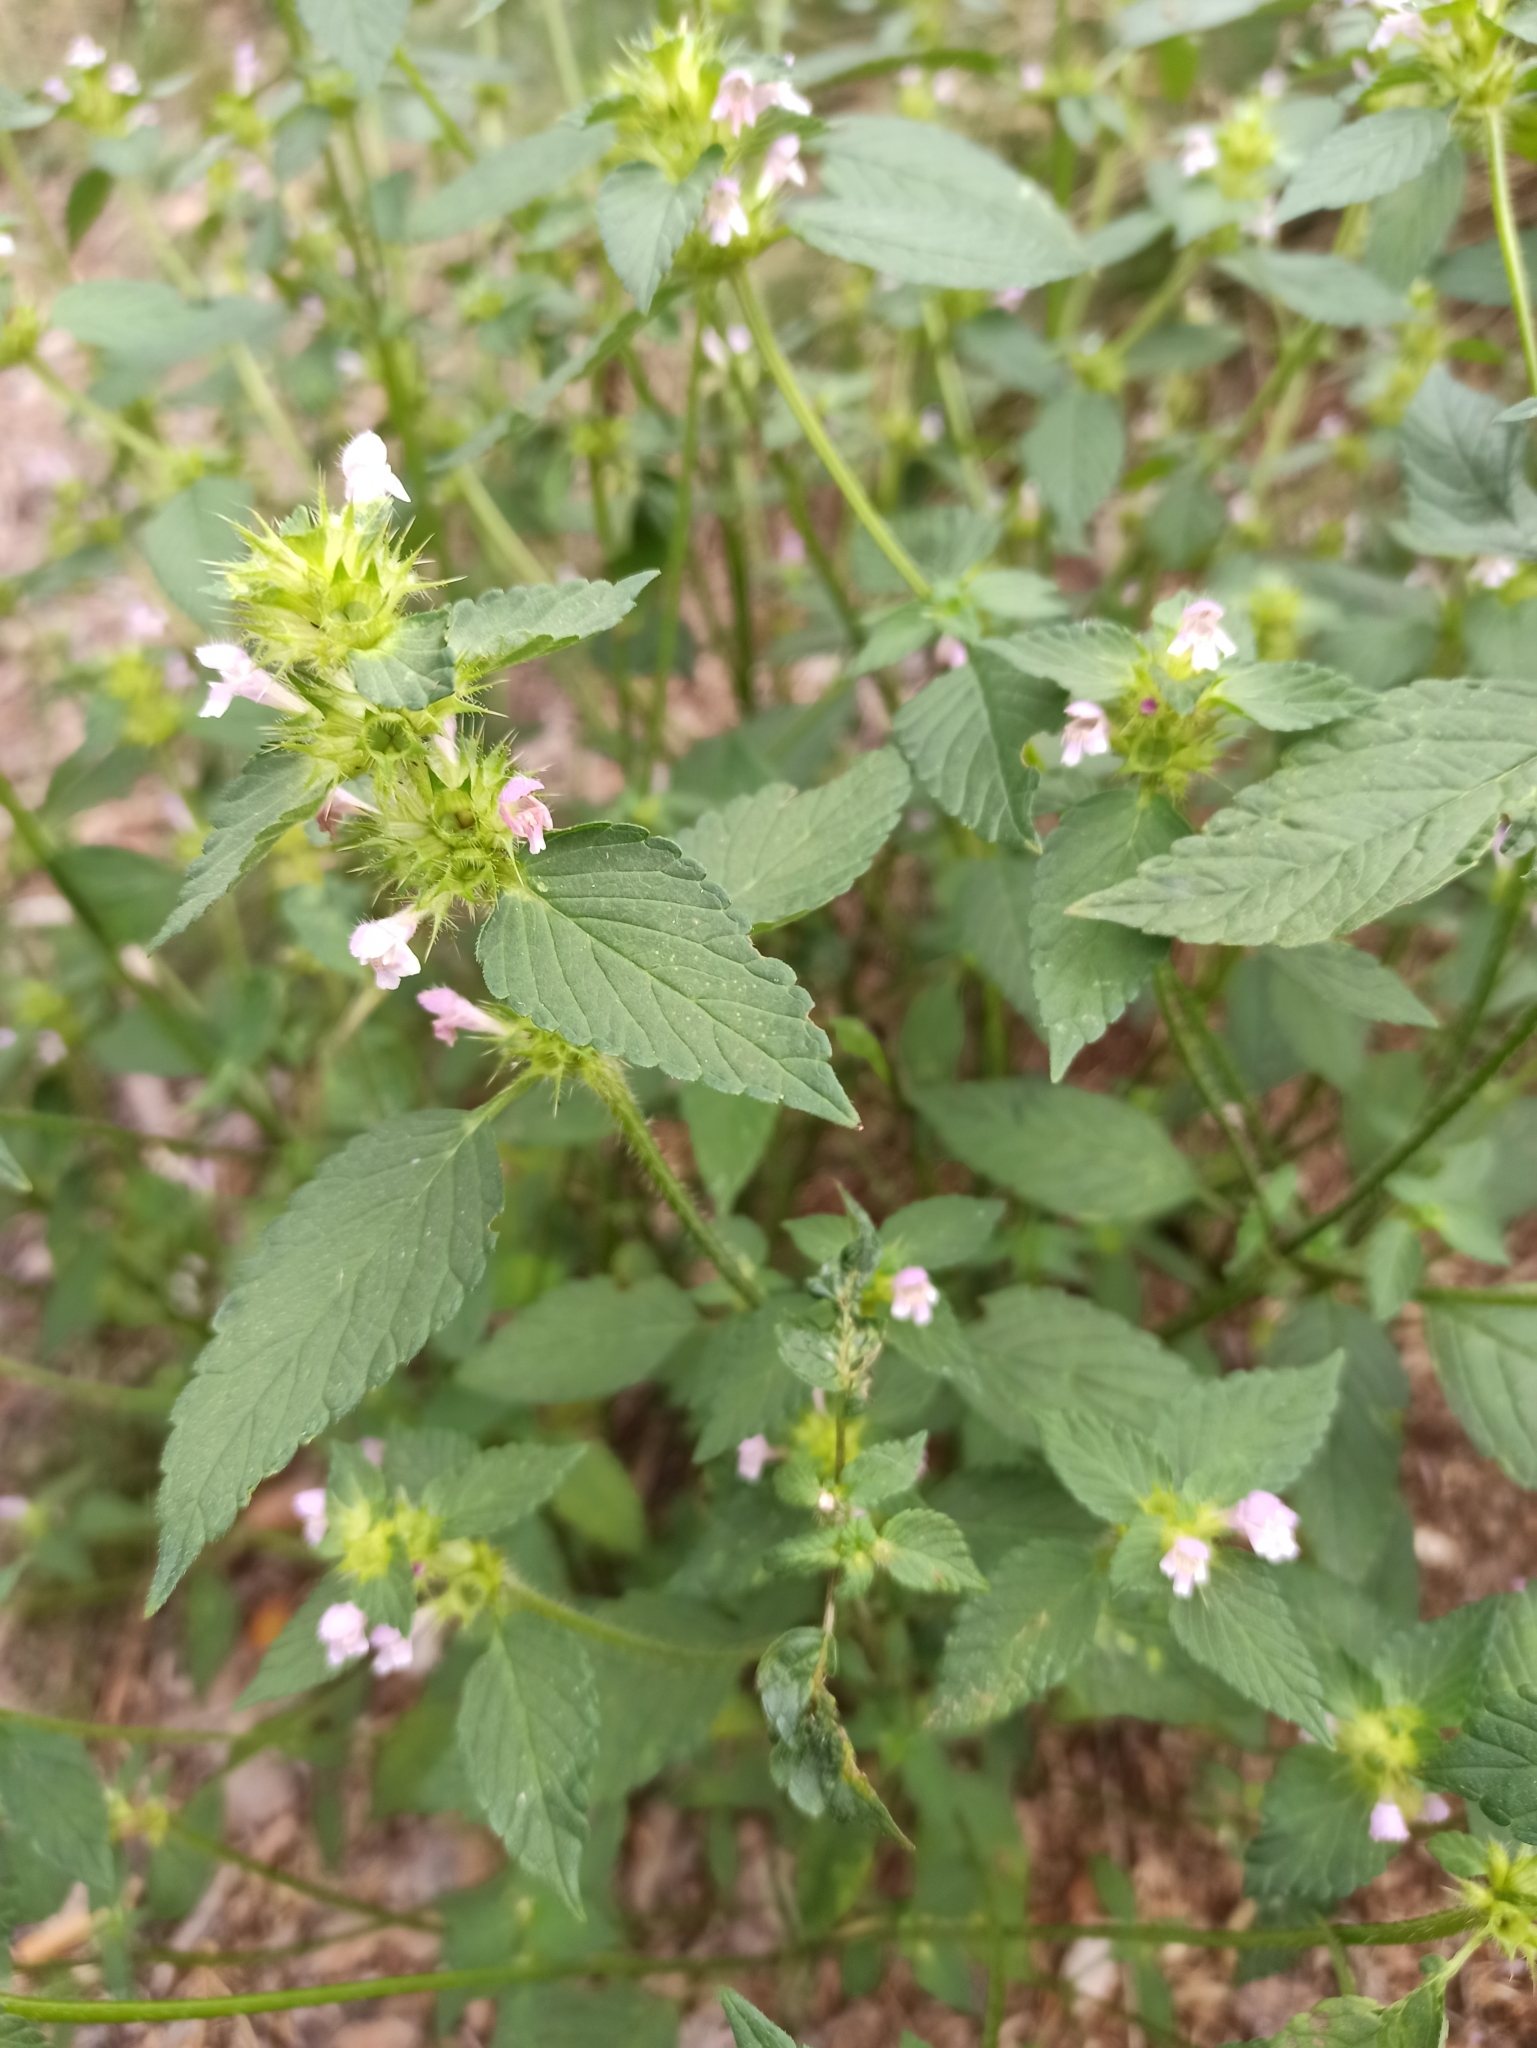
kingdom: Plantae
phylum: Tracheophyta
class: Magnoliopsida
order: Lamiales
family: Lamiaceae
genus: Galeopsis
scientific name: Galeopsis bifida
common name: Bifid hemp-nettle
